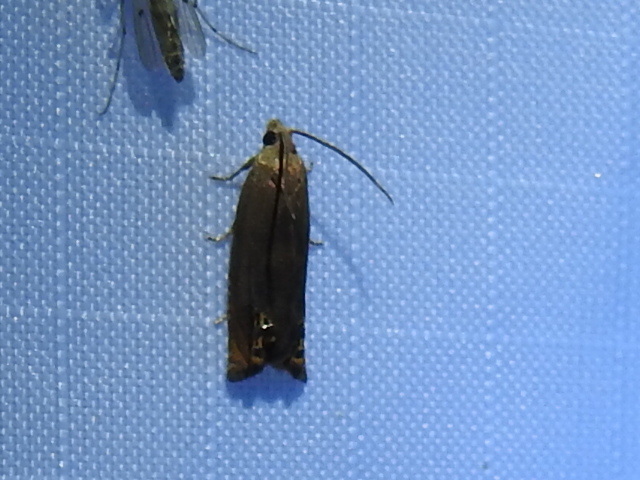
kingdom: Animalia
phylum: Arthropoda
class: Insecta
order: Lepidoptera
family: Tortricidae
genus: Hystrichophora
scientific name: Hystrichophora taleana
